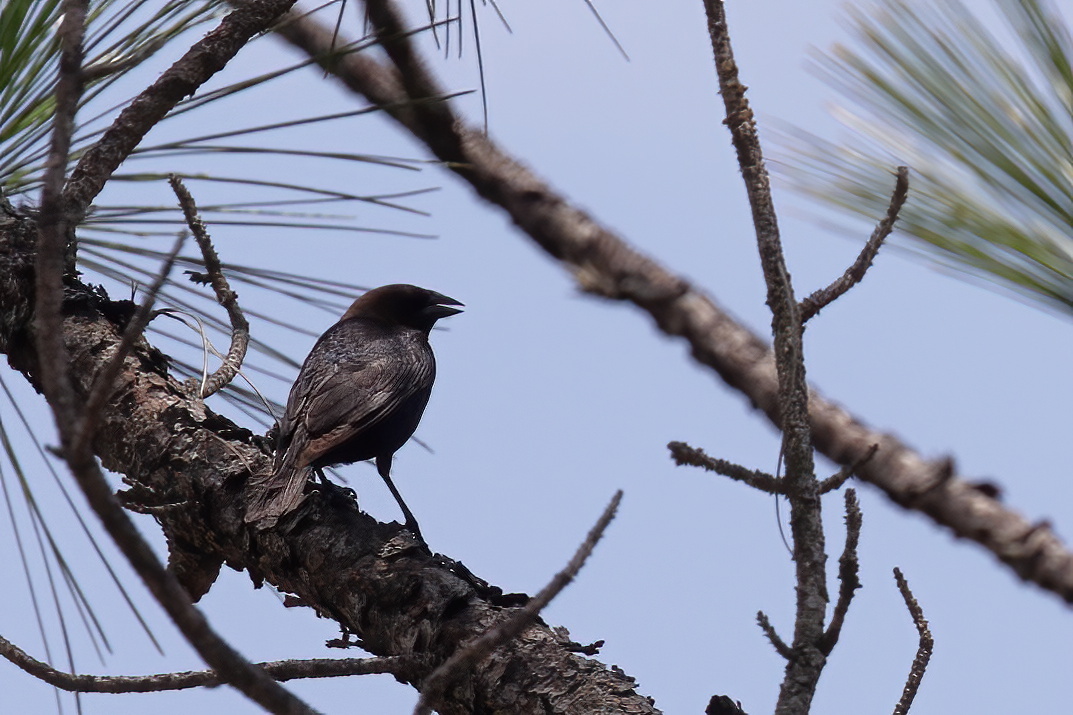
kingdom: Animalia
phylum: Chordata
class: Aves
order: Passeriformes
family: Icteridae
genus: Molothrus
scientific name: Molothrus ater
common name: Brown-headed cowbird
